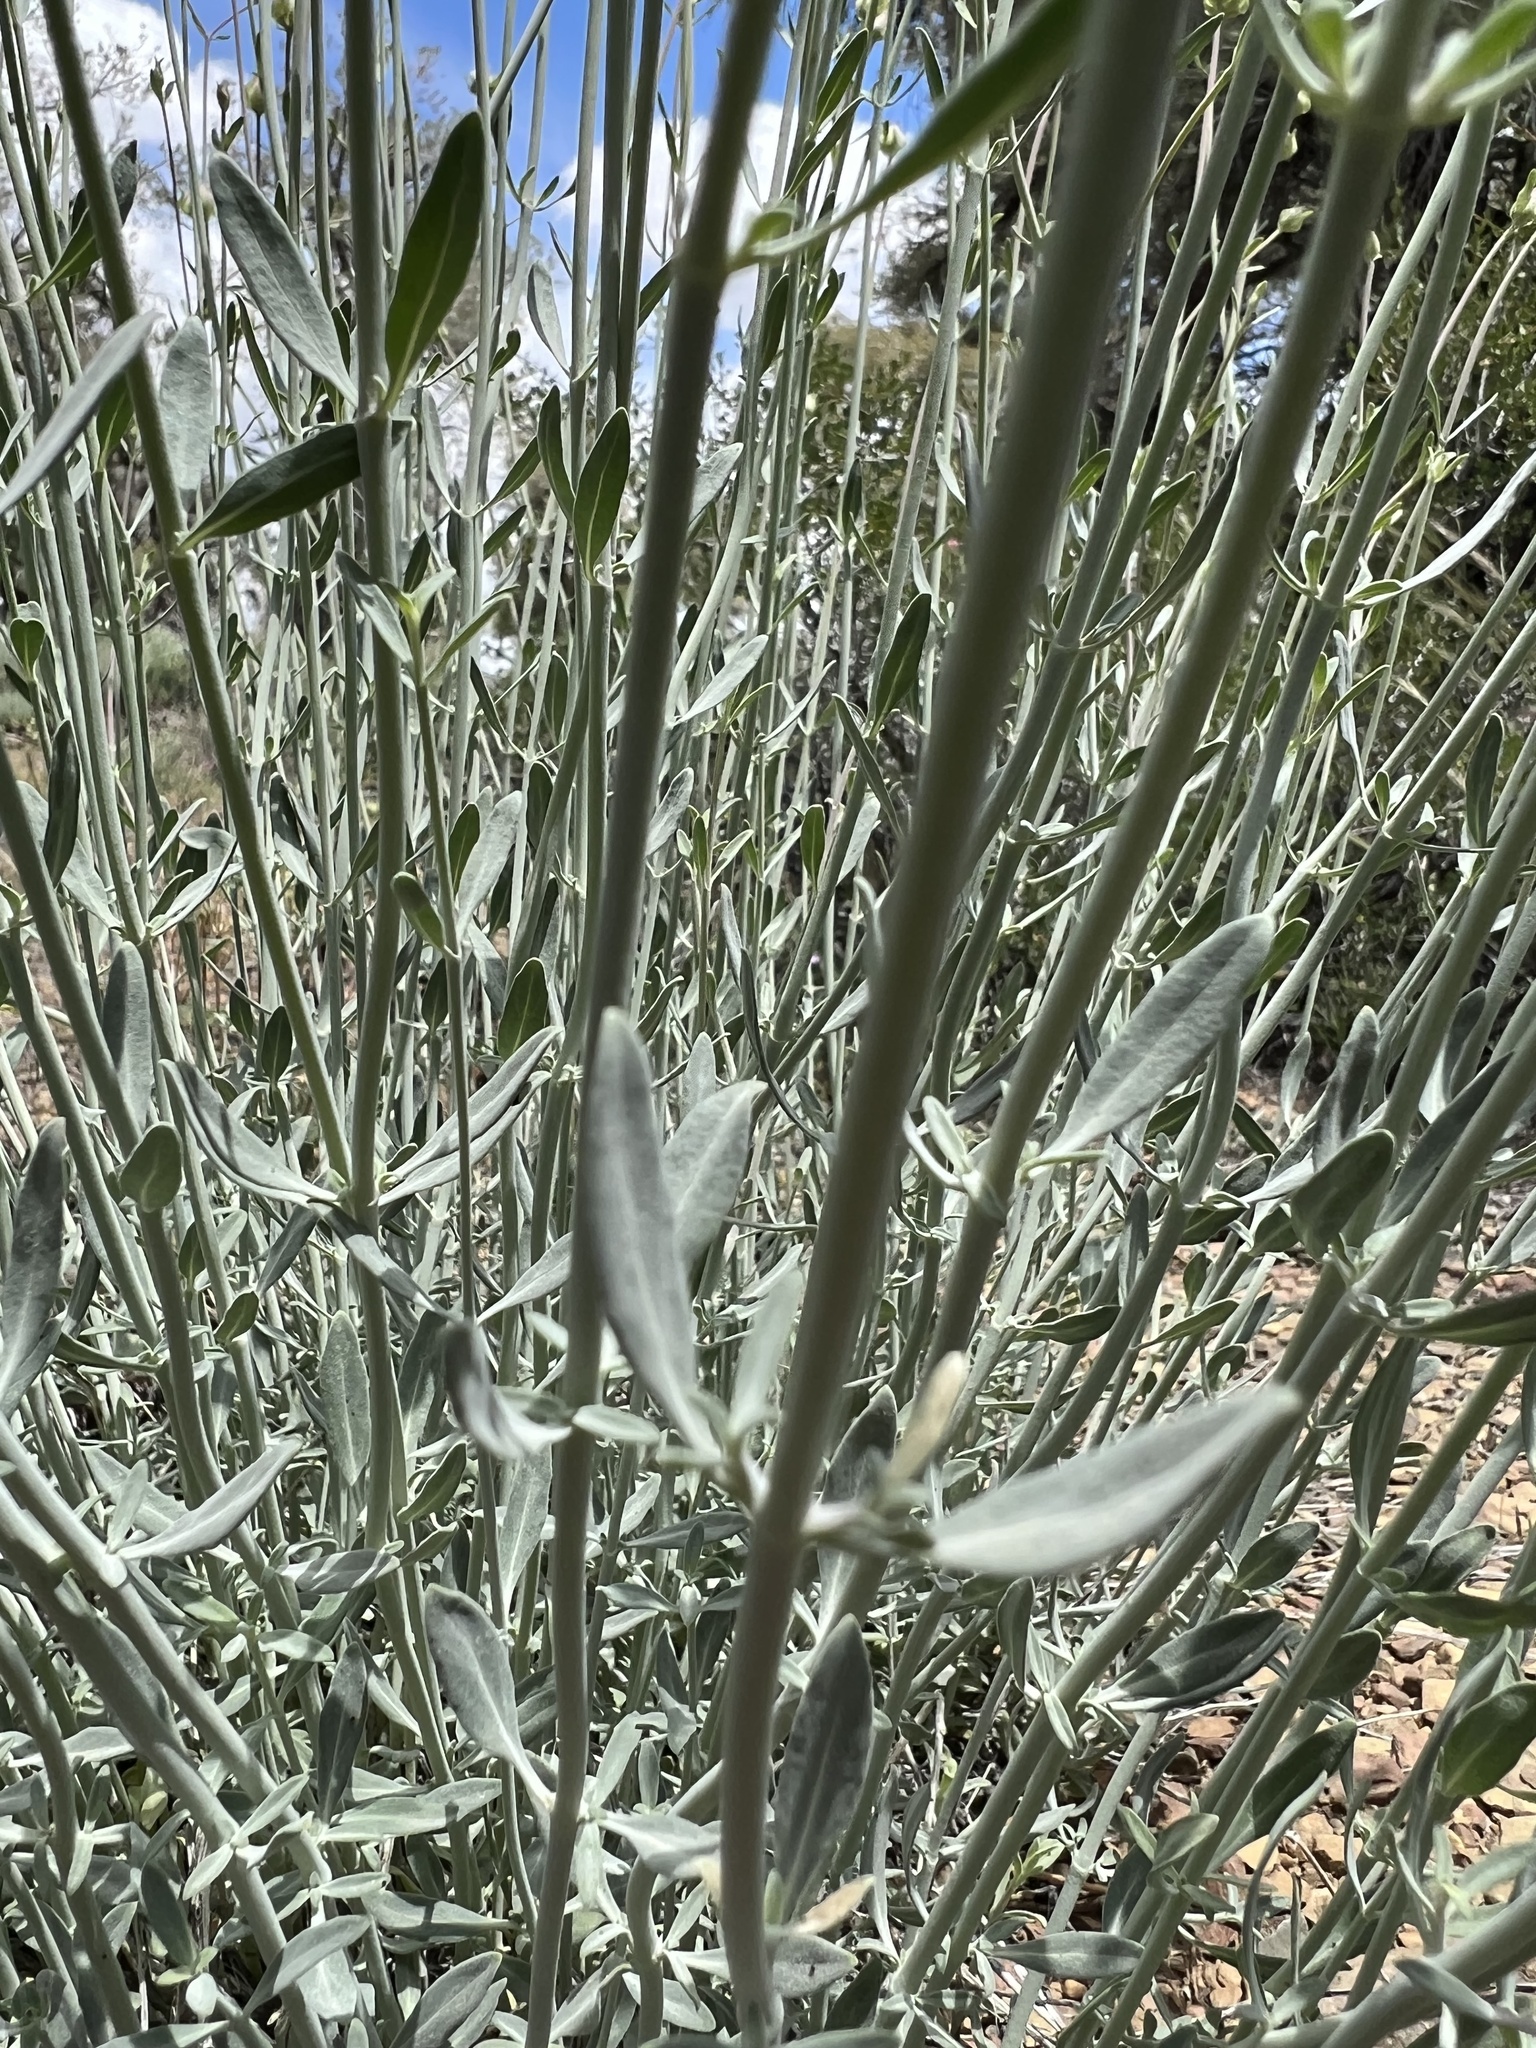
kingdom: Plantae
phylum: Tracheophyta
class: Magnoliopsida
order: Lamiales
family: Lamiaceae
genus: Monardella
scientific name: Monardella linoides
